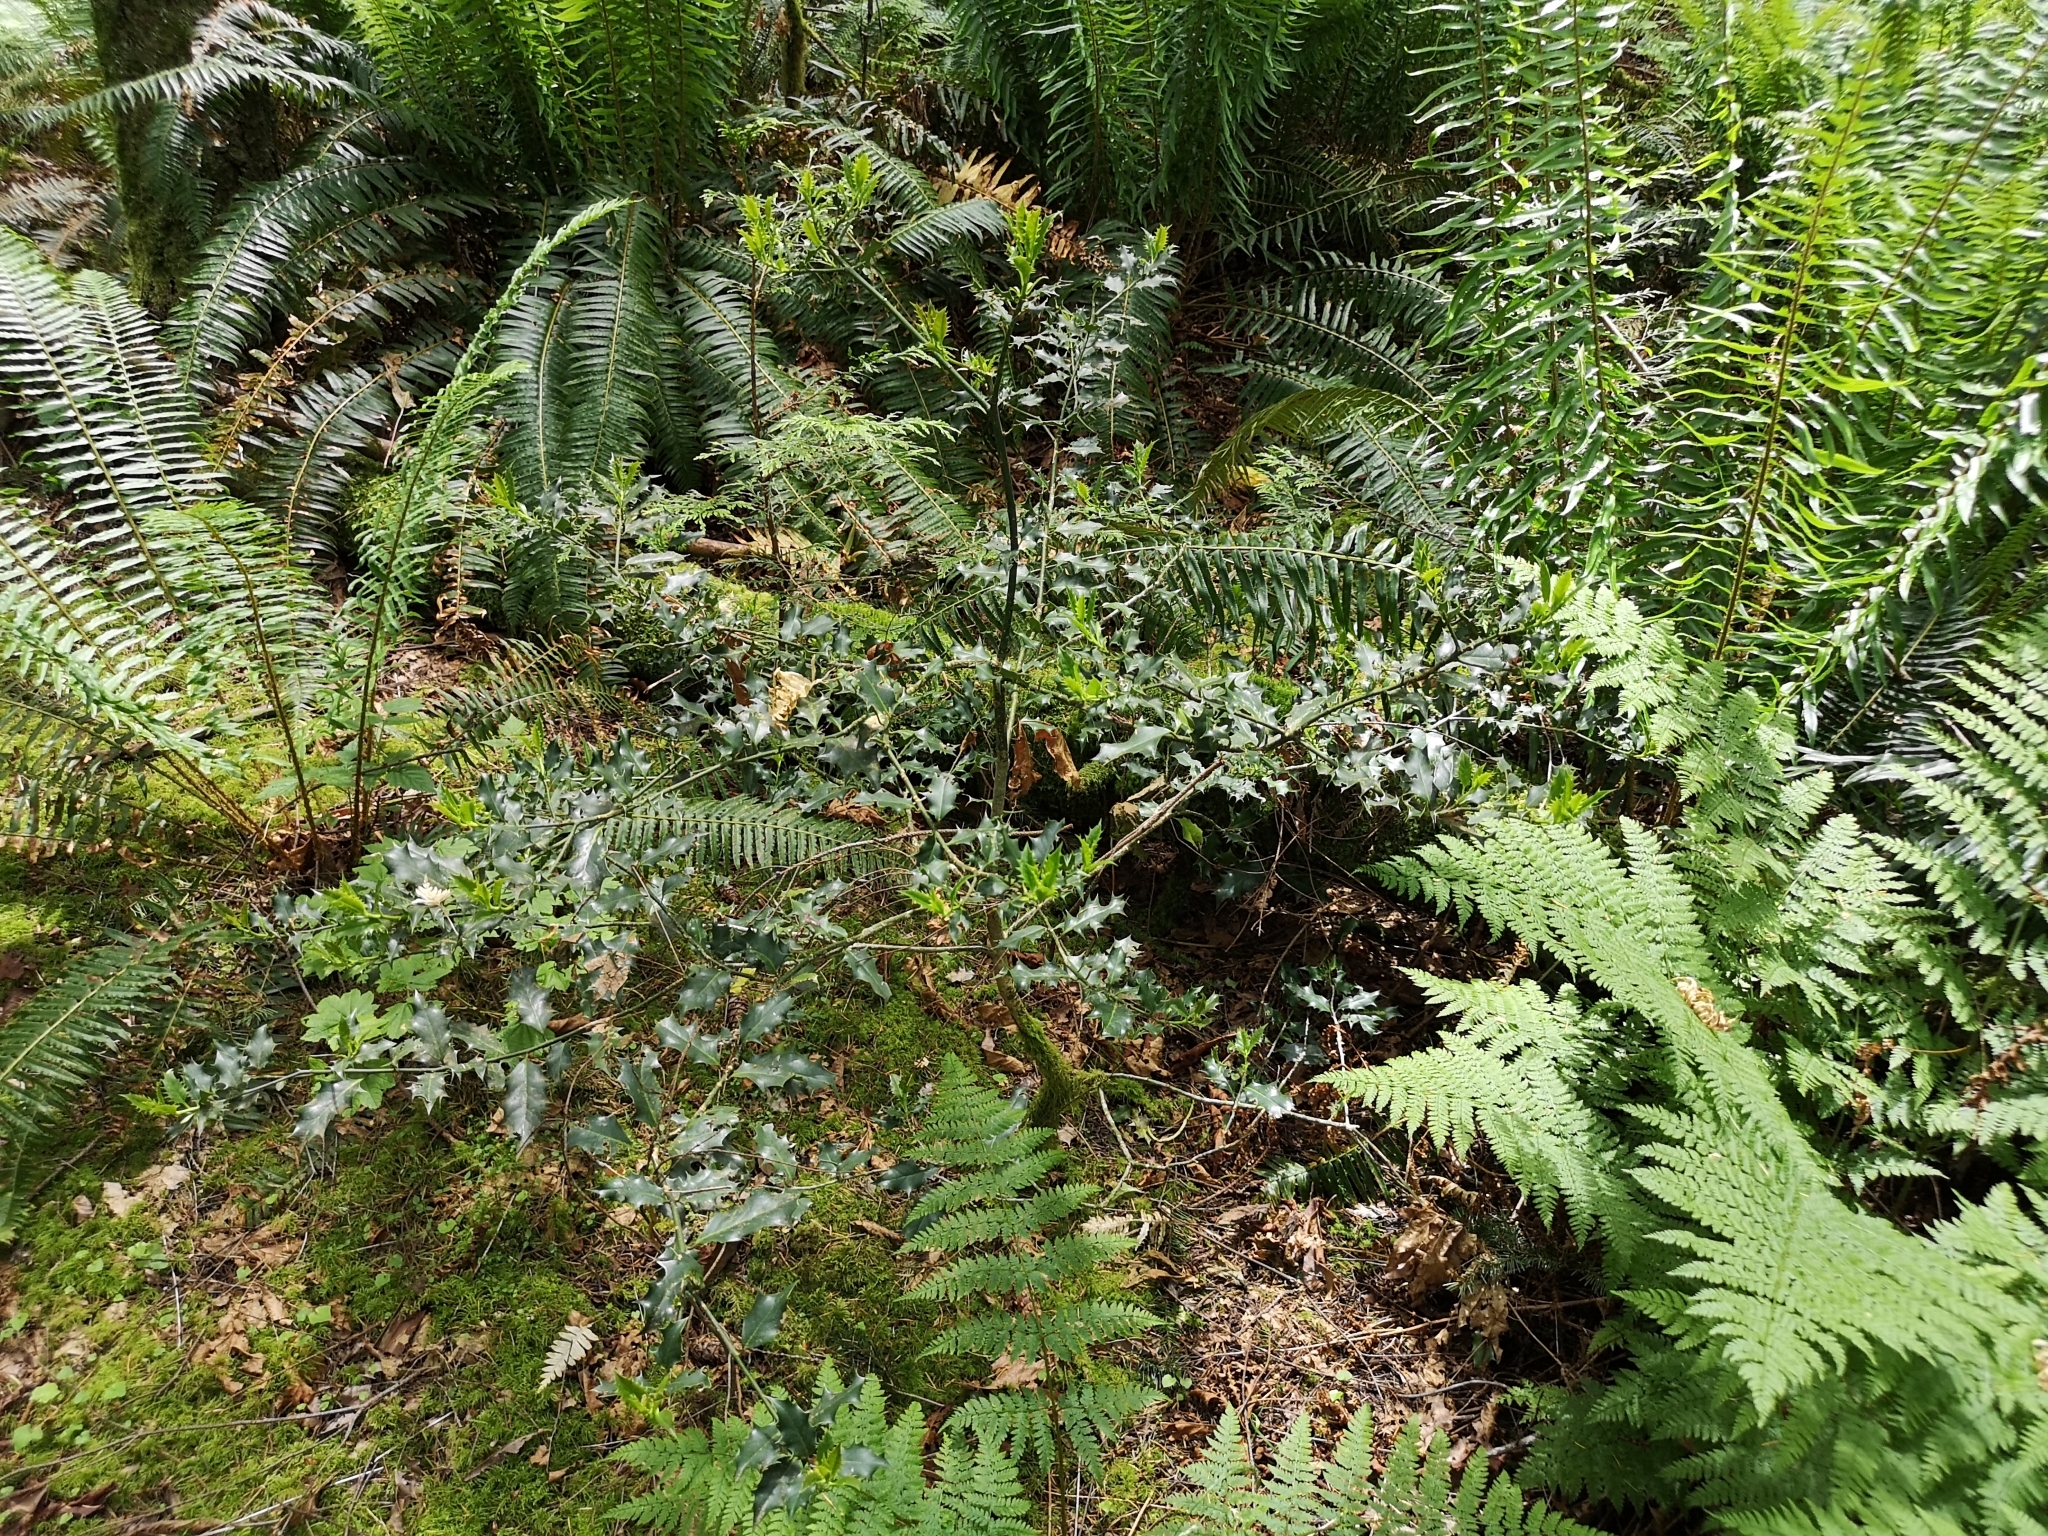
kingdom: Plantae
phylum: Tracheophyta
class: Magnoliopsida
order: Aquifoliales
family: Aquifoliaceae
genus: Ilex
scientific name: Ilex aquifolium
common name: English holly
